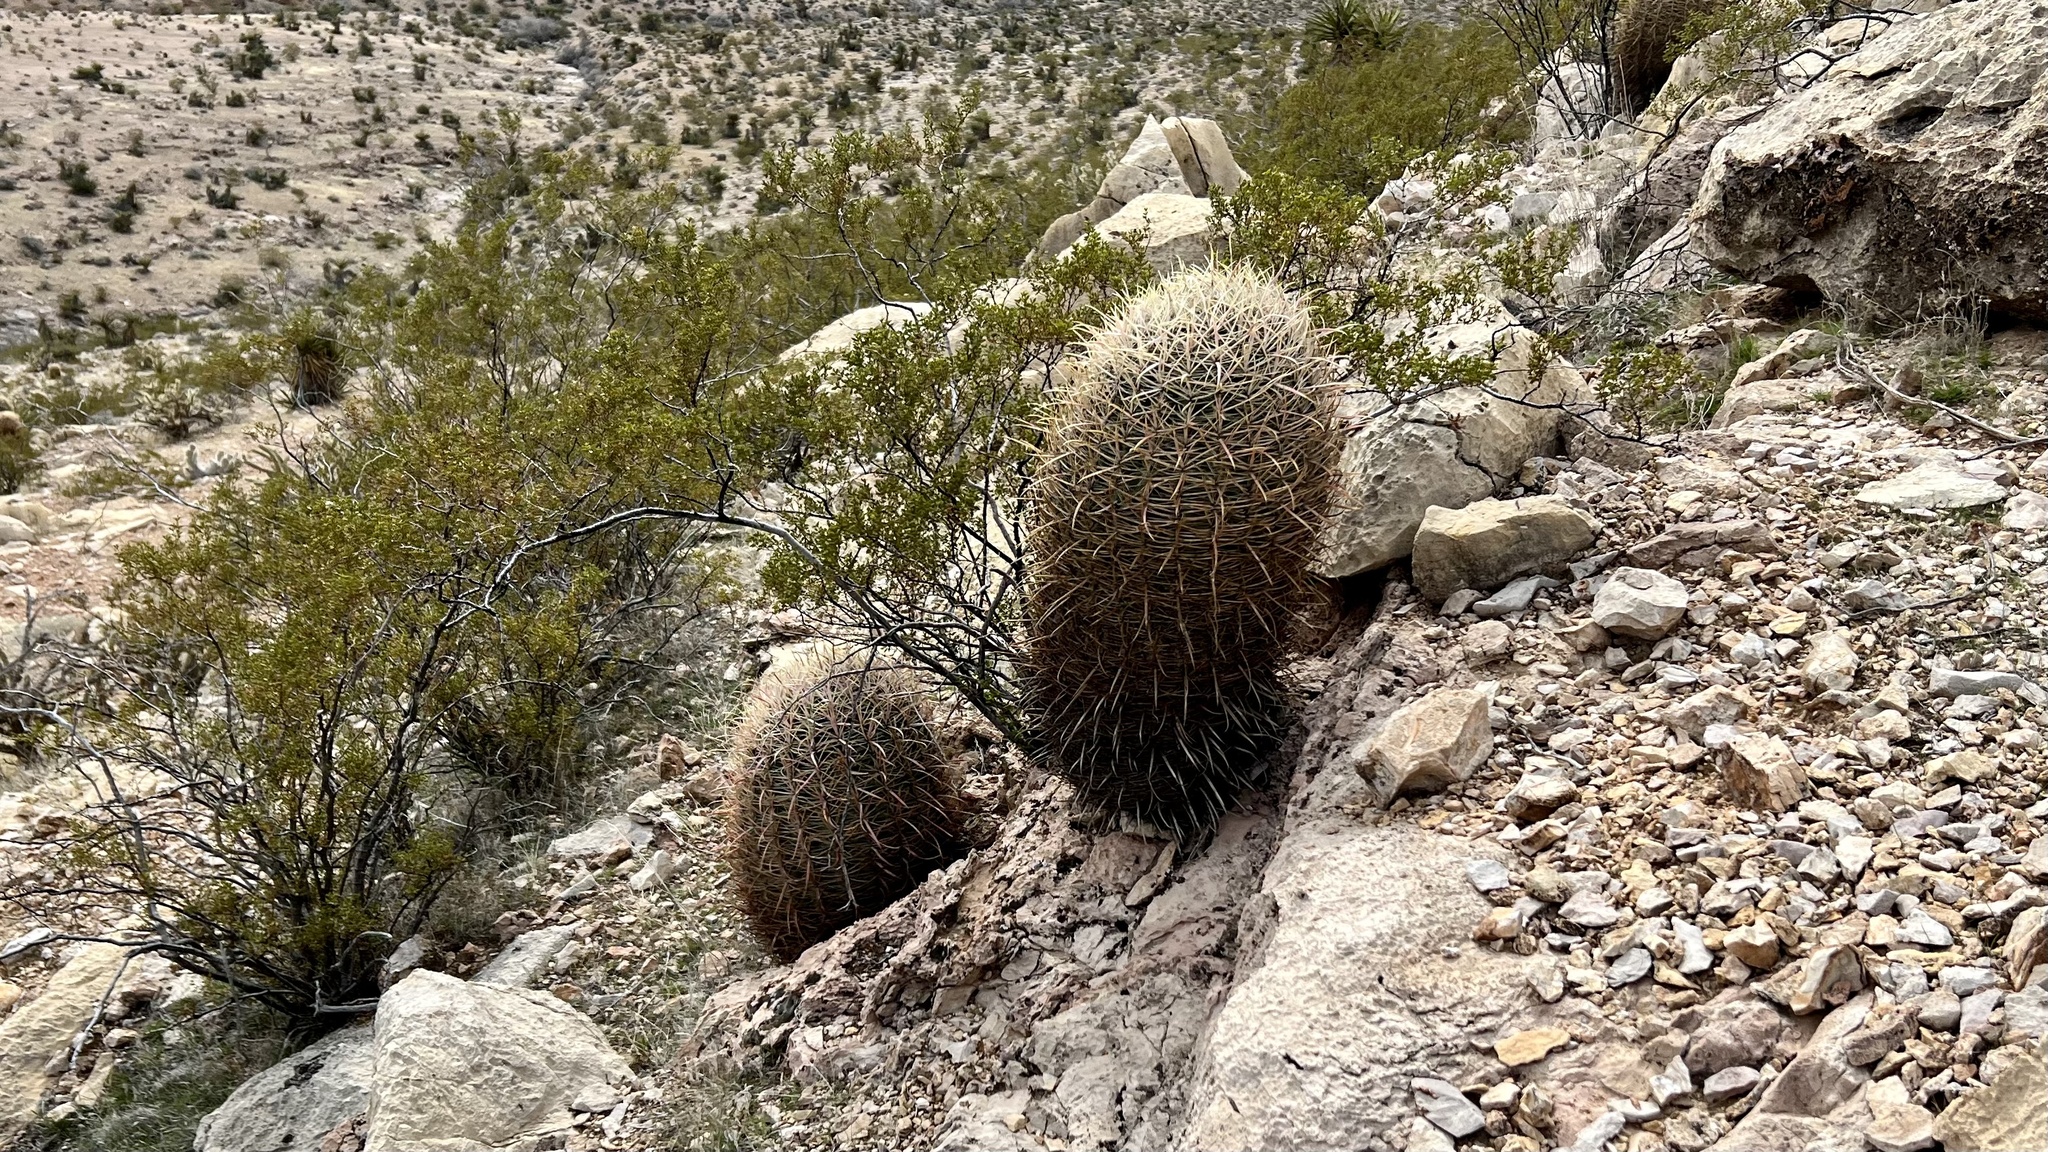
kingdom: Plantae
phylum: Tracheophyta
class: Magnoliopsida
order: Caryophyllales
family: Cactaceae
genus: Ferocactus
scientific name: Ferocactus cylindraceus
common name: California barrel cactus
